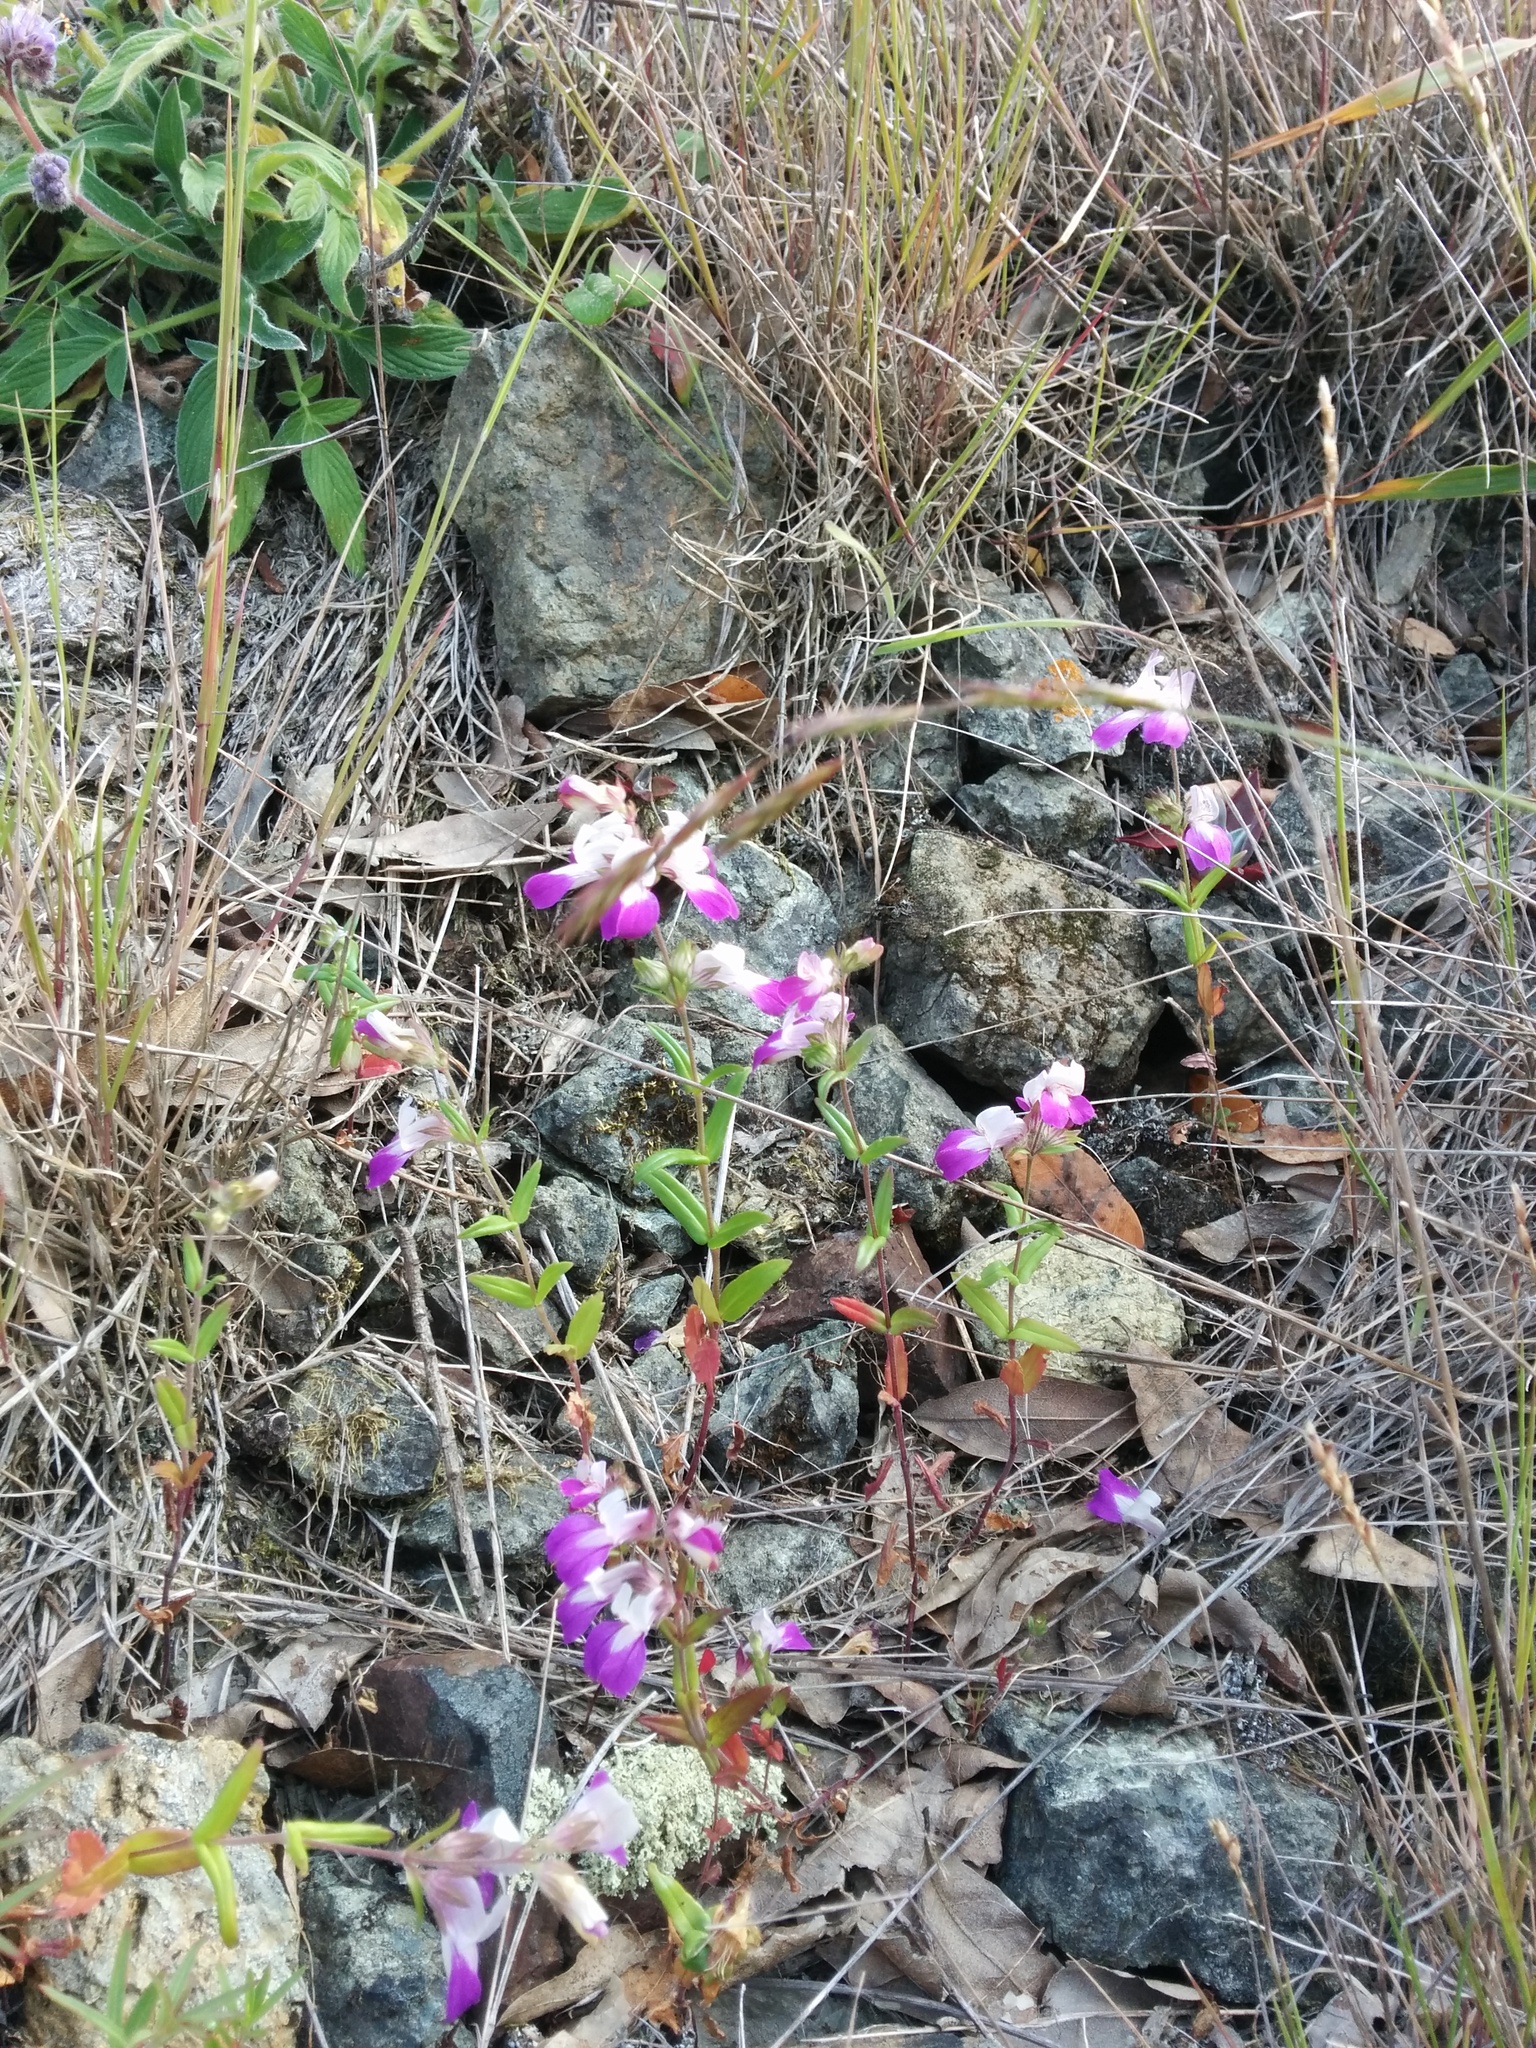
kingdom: Plantae
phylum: Tracheophyta
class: Magnoliopsida
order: Lamiales
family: Plantaginaceae
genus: Collinsia
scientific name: Collinsia heterophylla
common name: Chinese-houses
